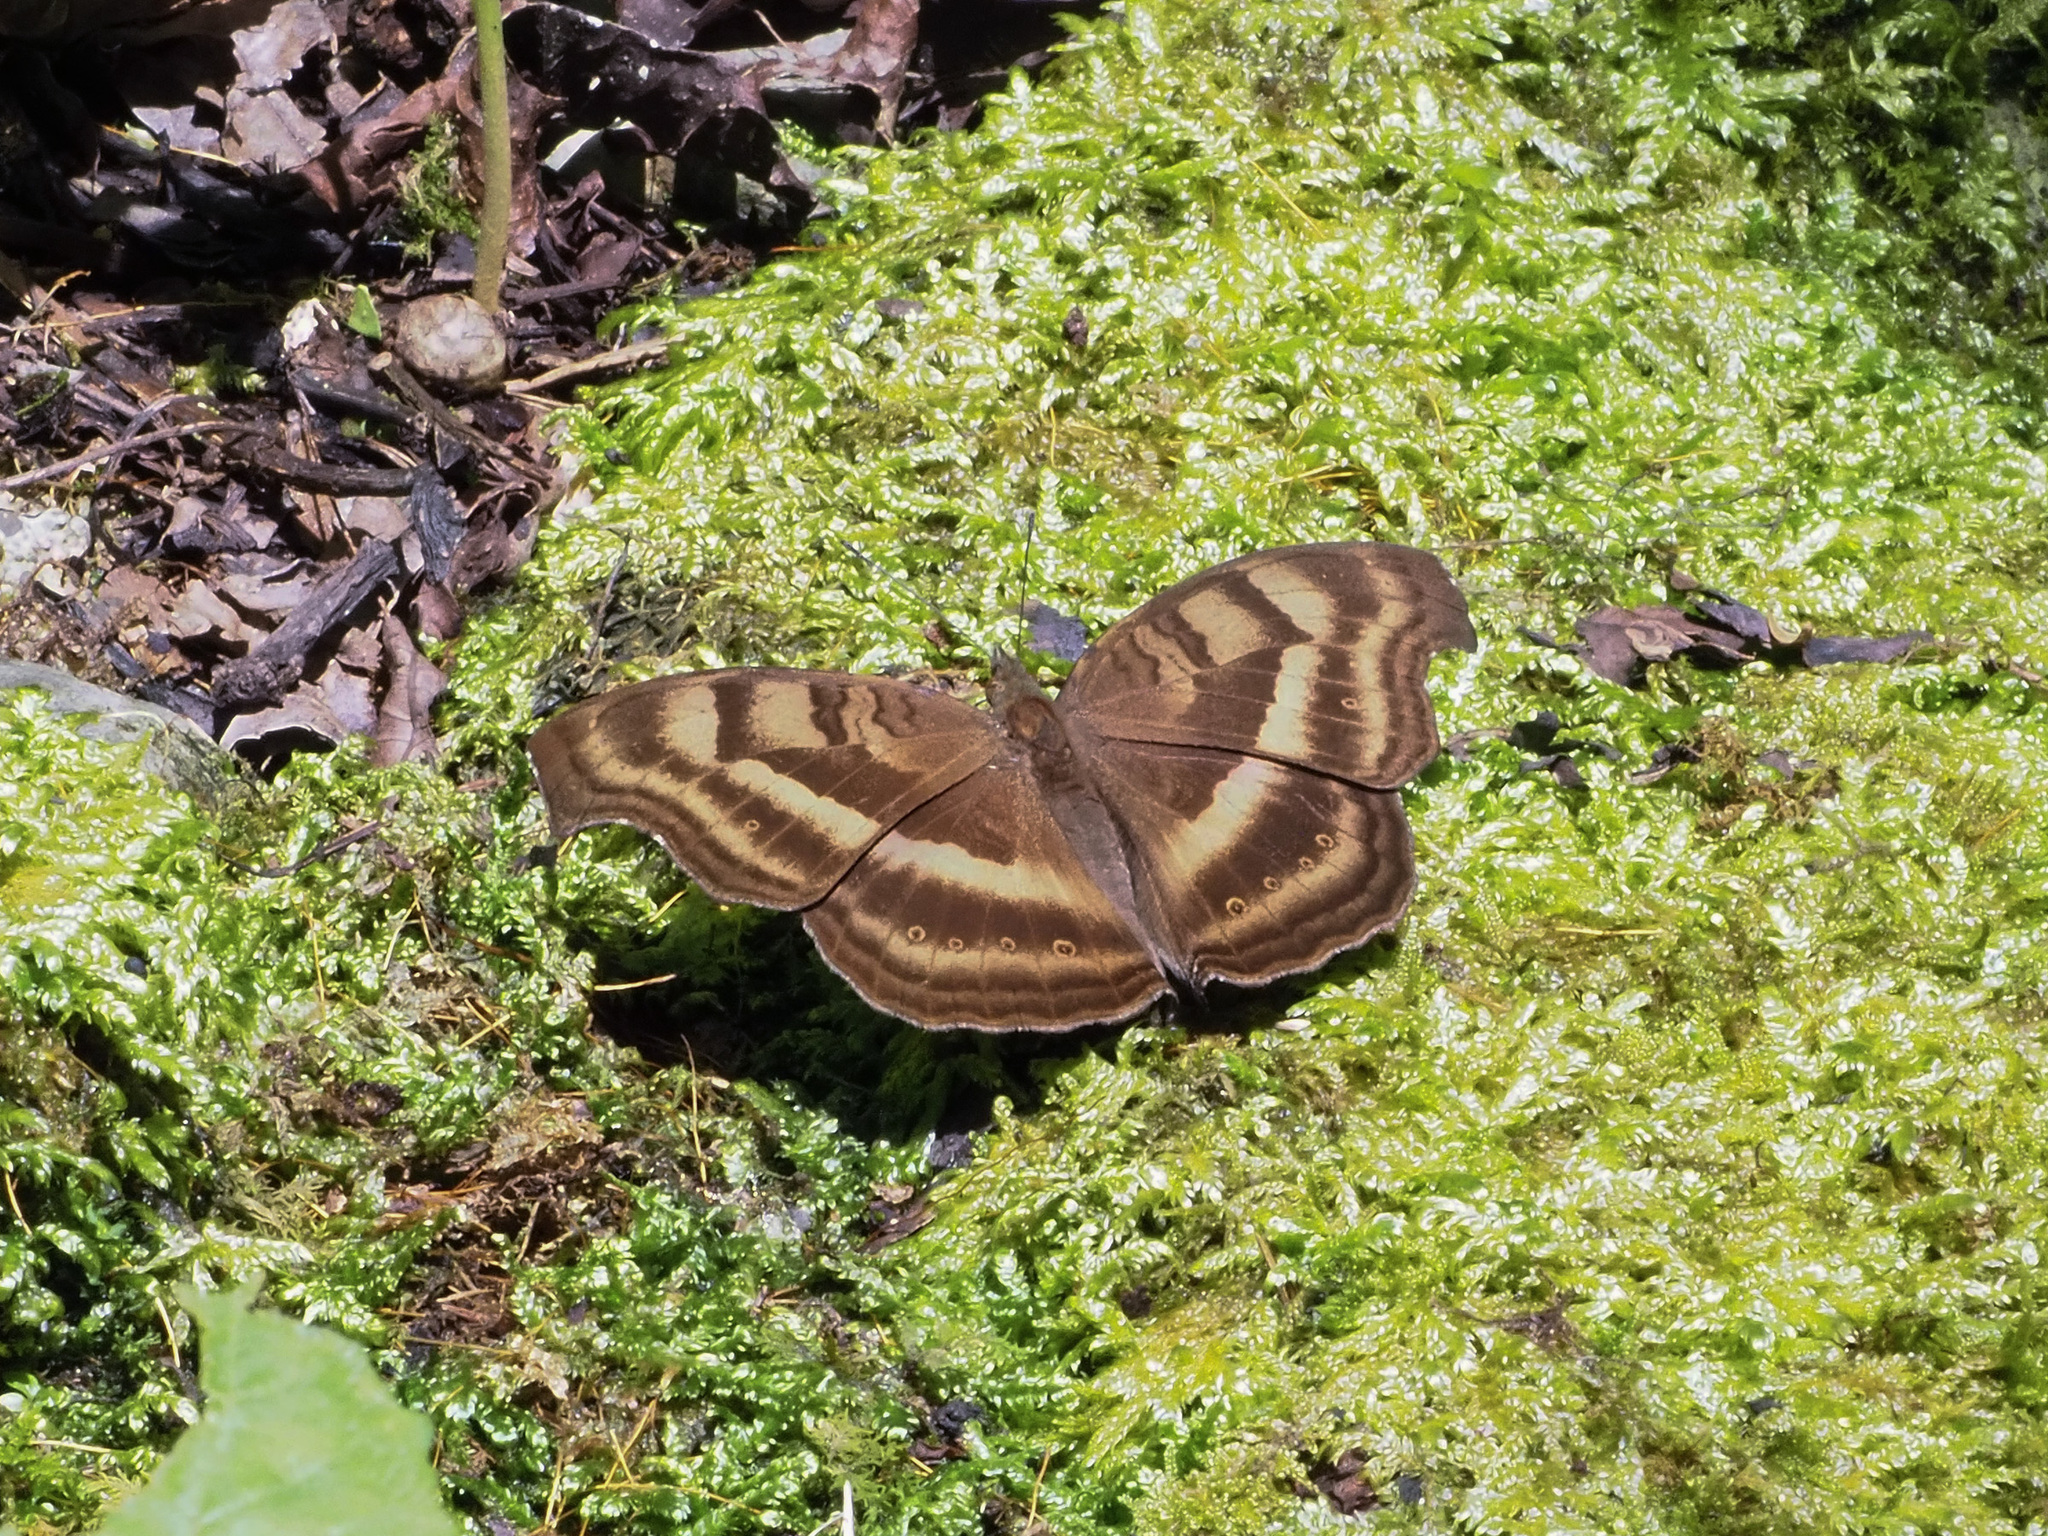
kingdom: Animalia
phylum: Arthropoda
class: Insecta
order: Lepidoptera
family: Nymphalidae
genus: Junonia
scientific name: Junonia iphita
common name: Chocolate pansy
